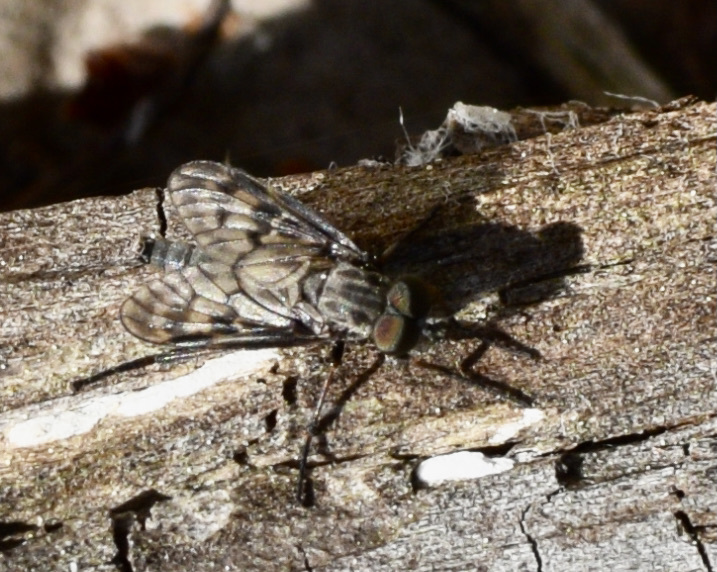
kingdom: Animalia
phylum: Arthropoda
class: Insecta
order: Diptera
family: Rhagionidae
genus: Rhagio
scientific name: Rhagio plumbeus
